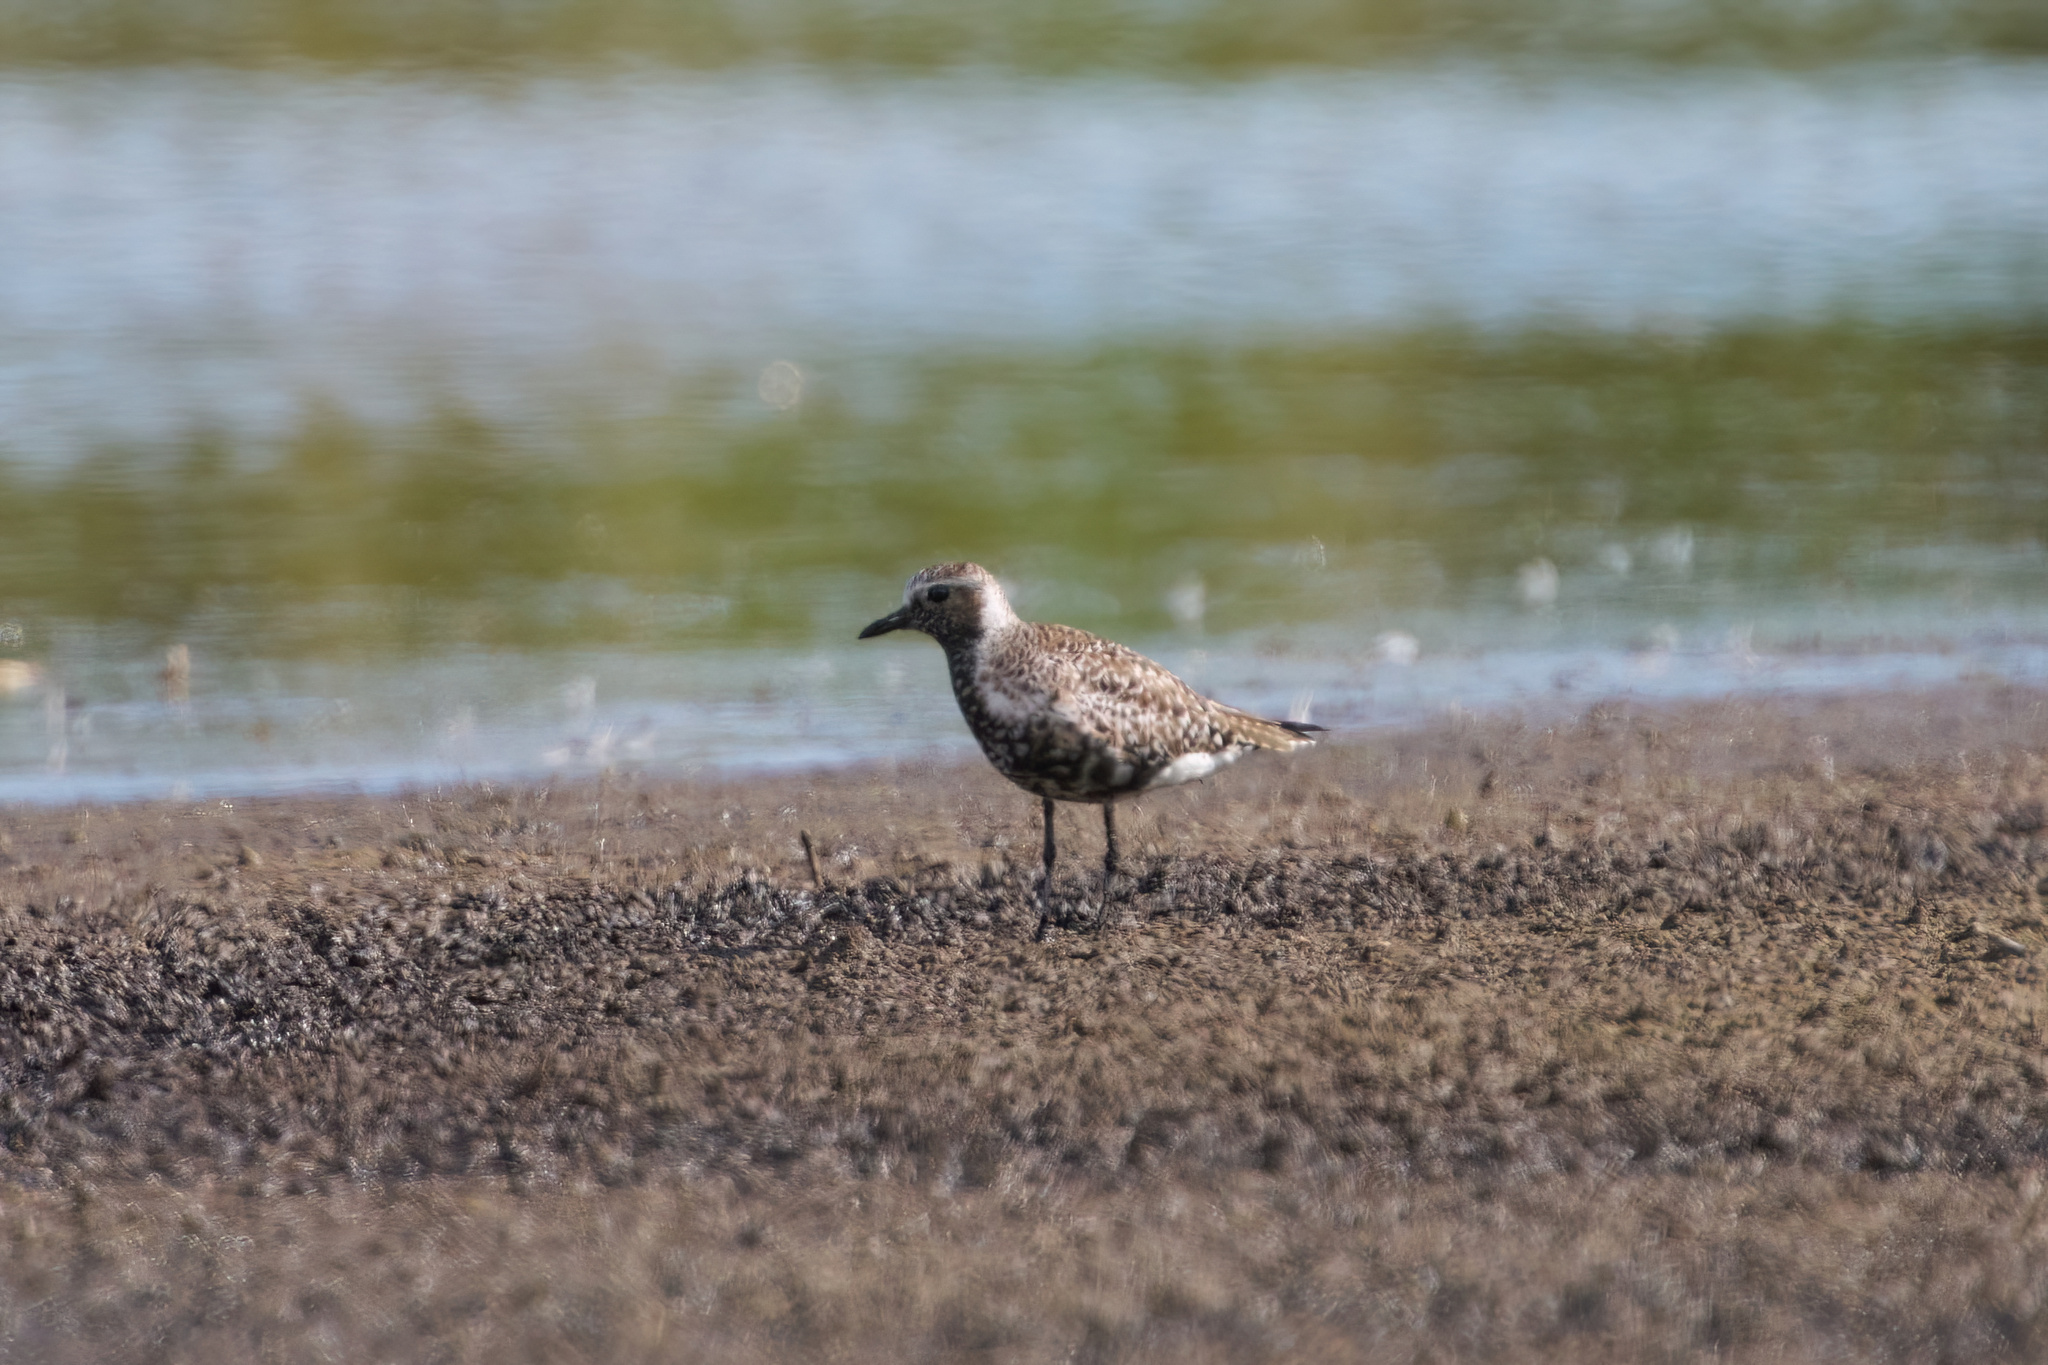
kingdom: Animalia
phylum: Chordata
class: Aves
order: Charadriiformes
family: Charadriidae
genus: Pluvialis
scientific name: Pluvialis squatarola
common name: Grey plover
